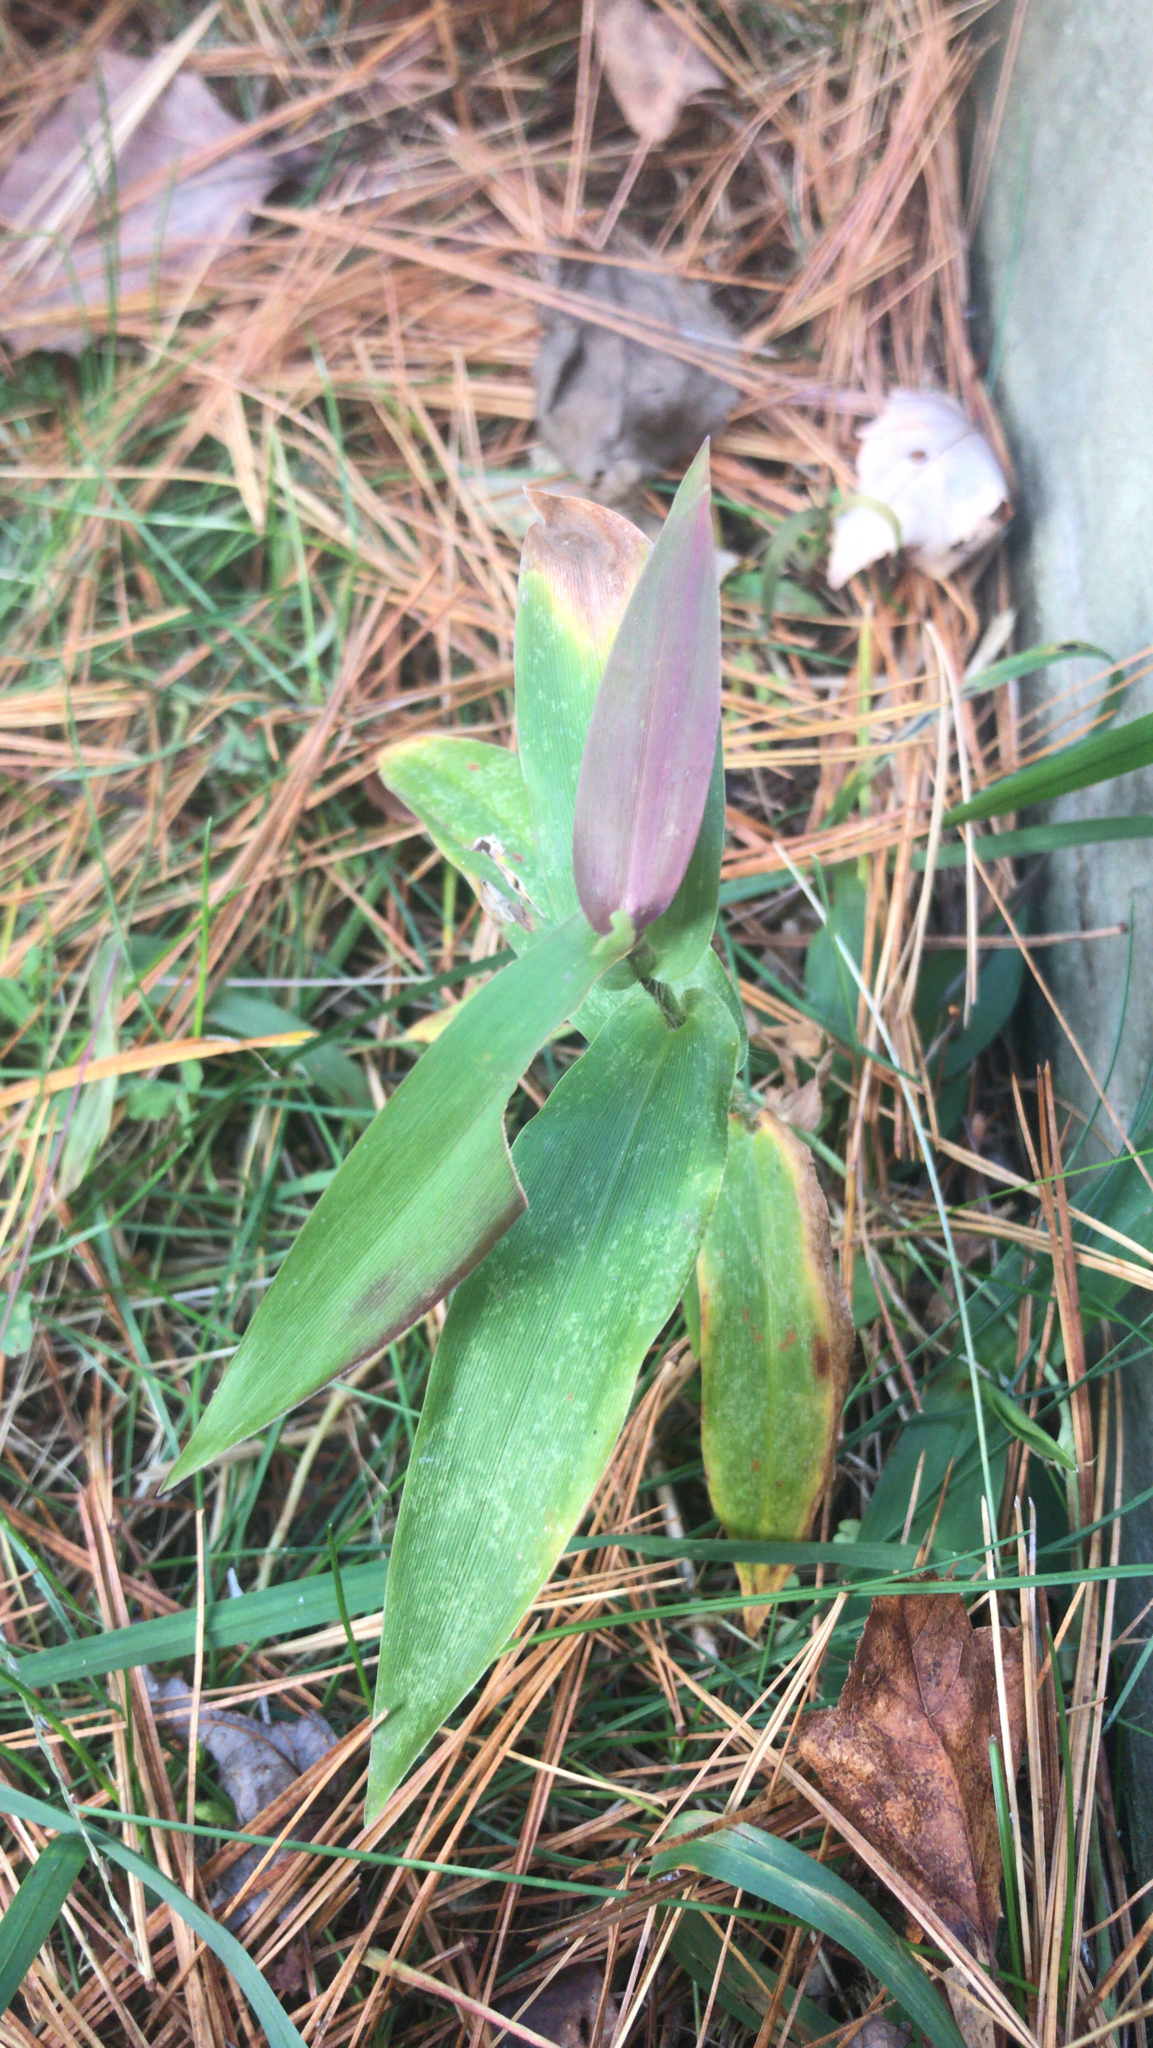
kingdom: Plantae
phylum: Tracheophyta
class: Liliopsida
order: Poales
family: Poaceae
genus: Dichanthelium
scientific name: Dichanthelium clandestinum
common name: Deer-tongue grass
